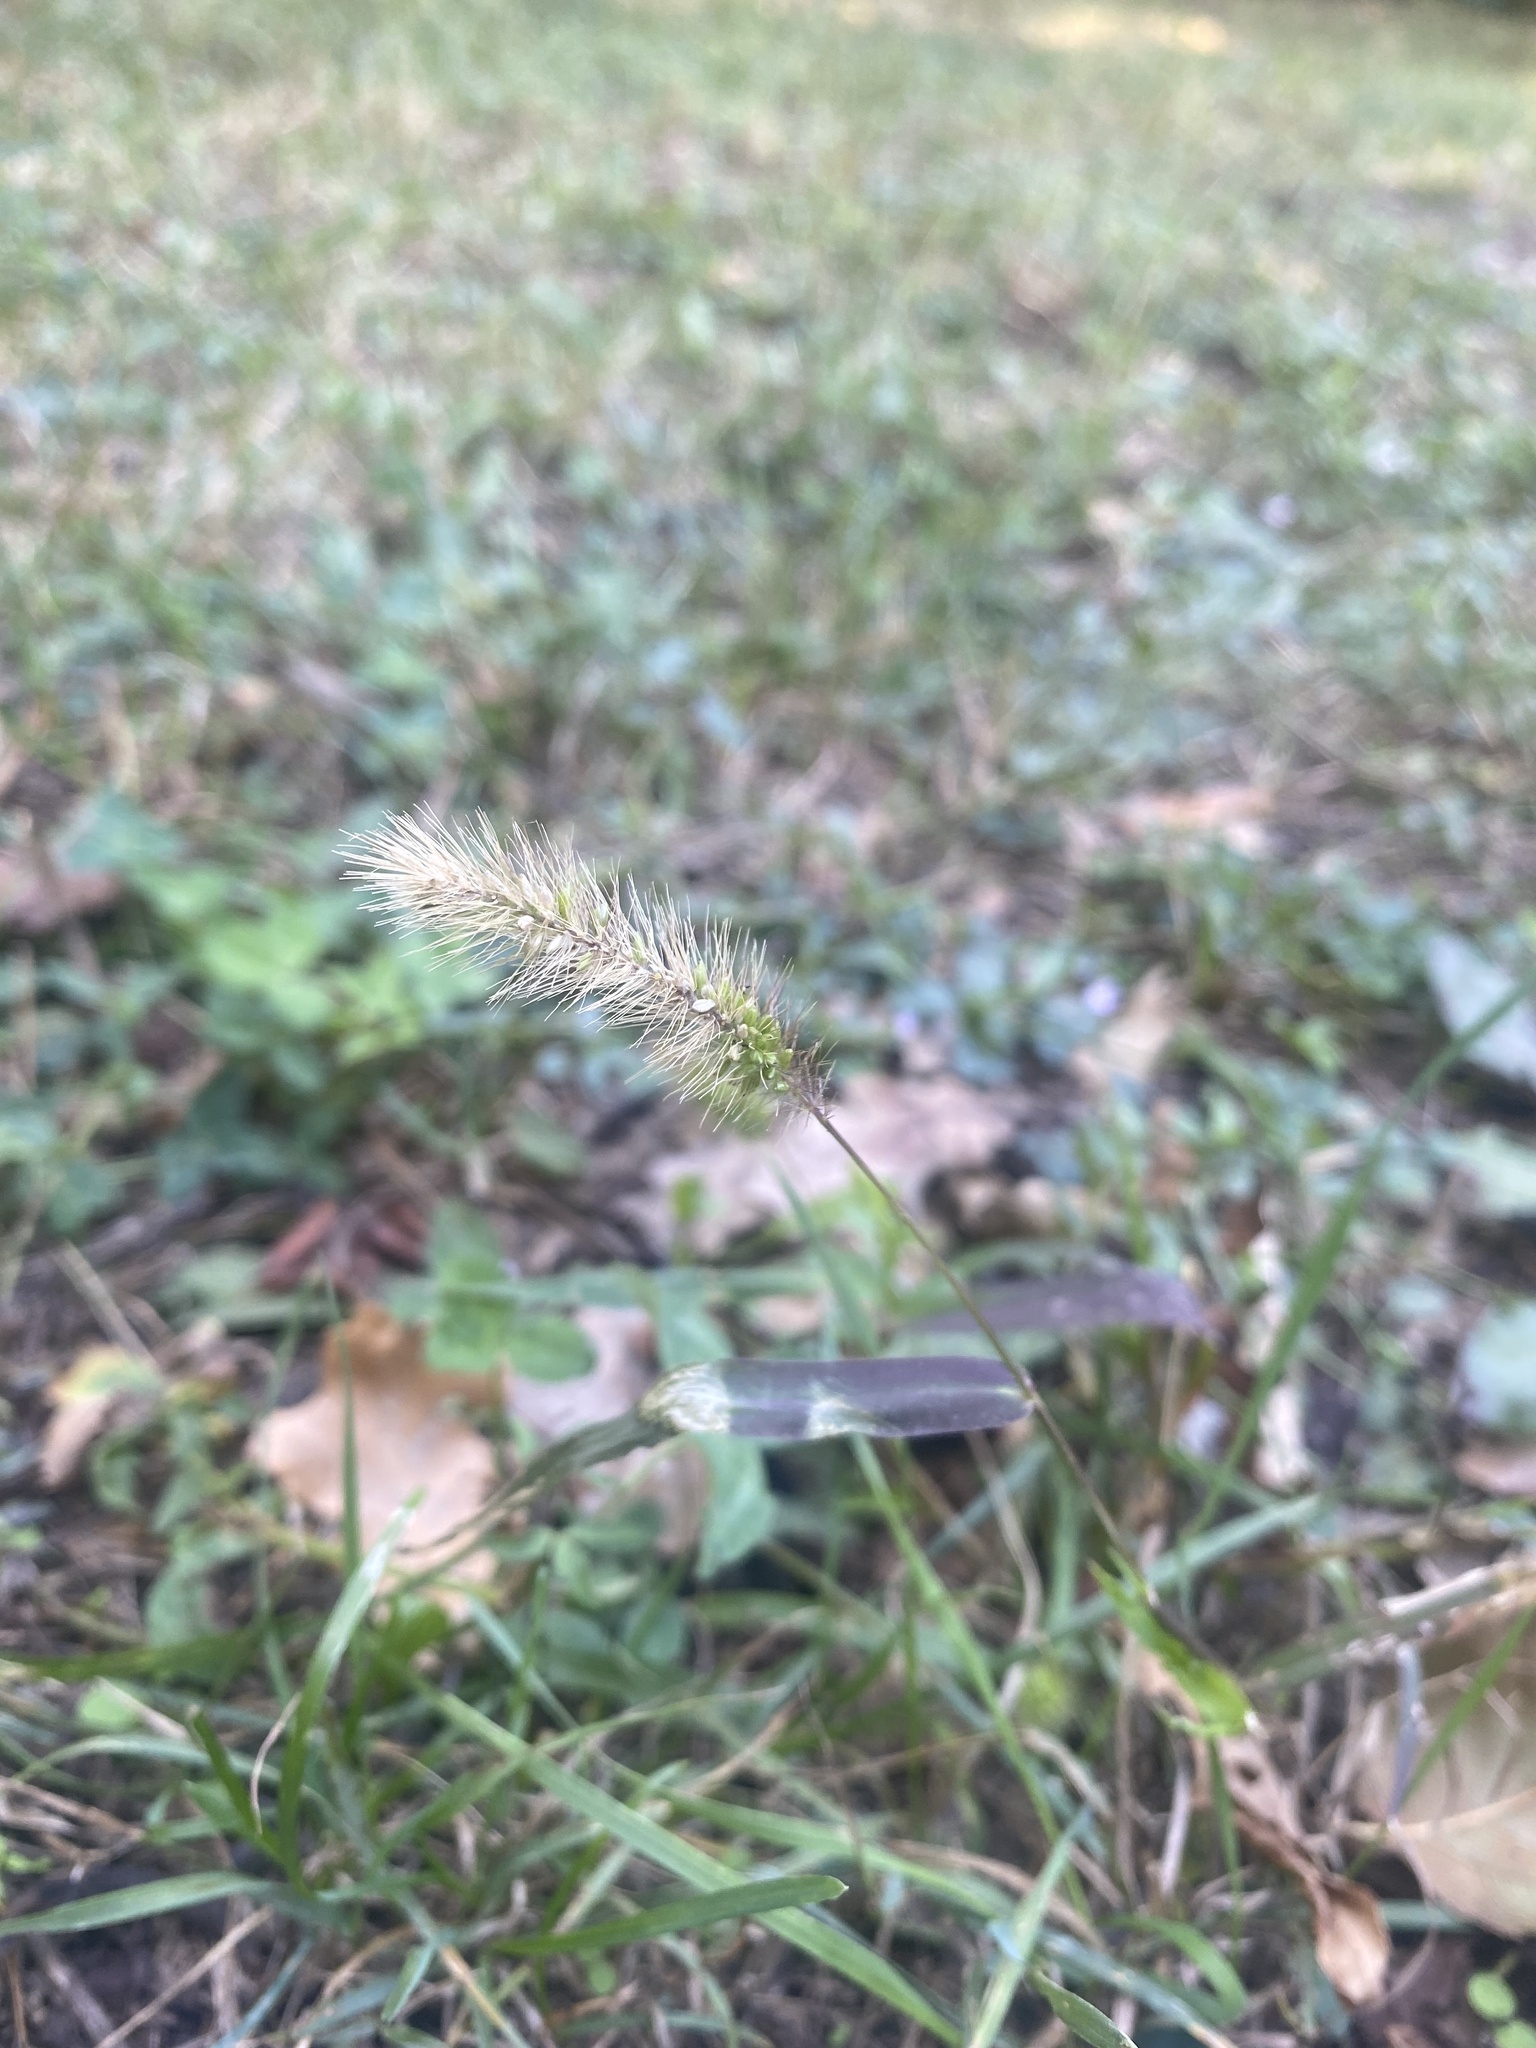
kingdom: Plantae
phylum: Tracheophyta
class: Liliopsida
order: Poales
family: Poaceae
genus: Setaria
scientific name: Setaria viridis
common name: Green bristlegrass
